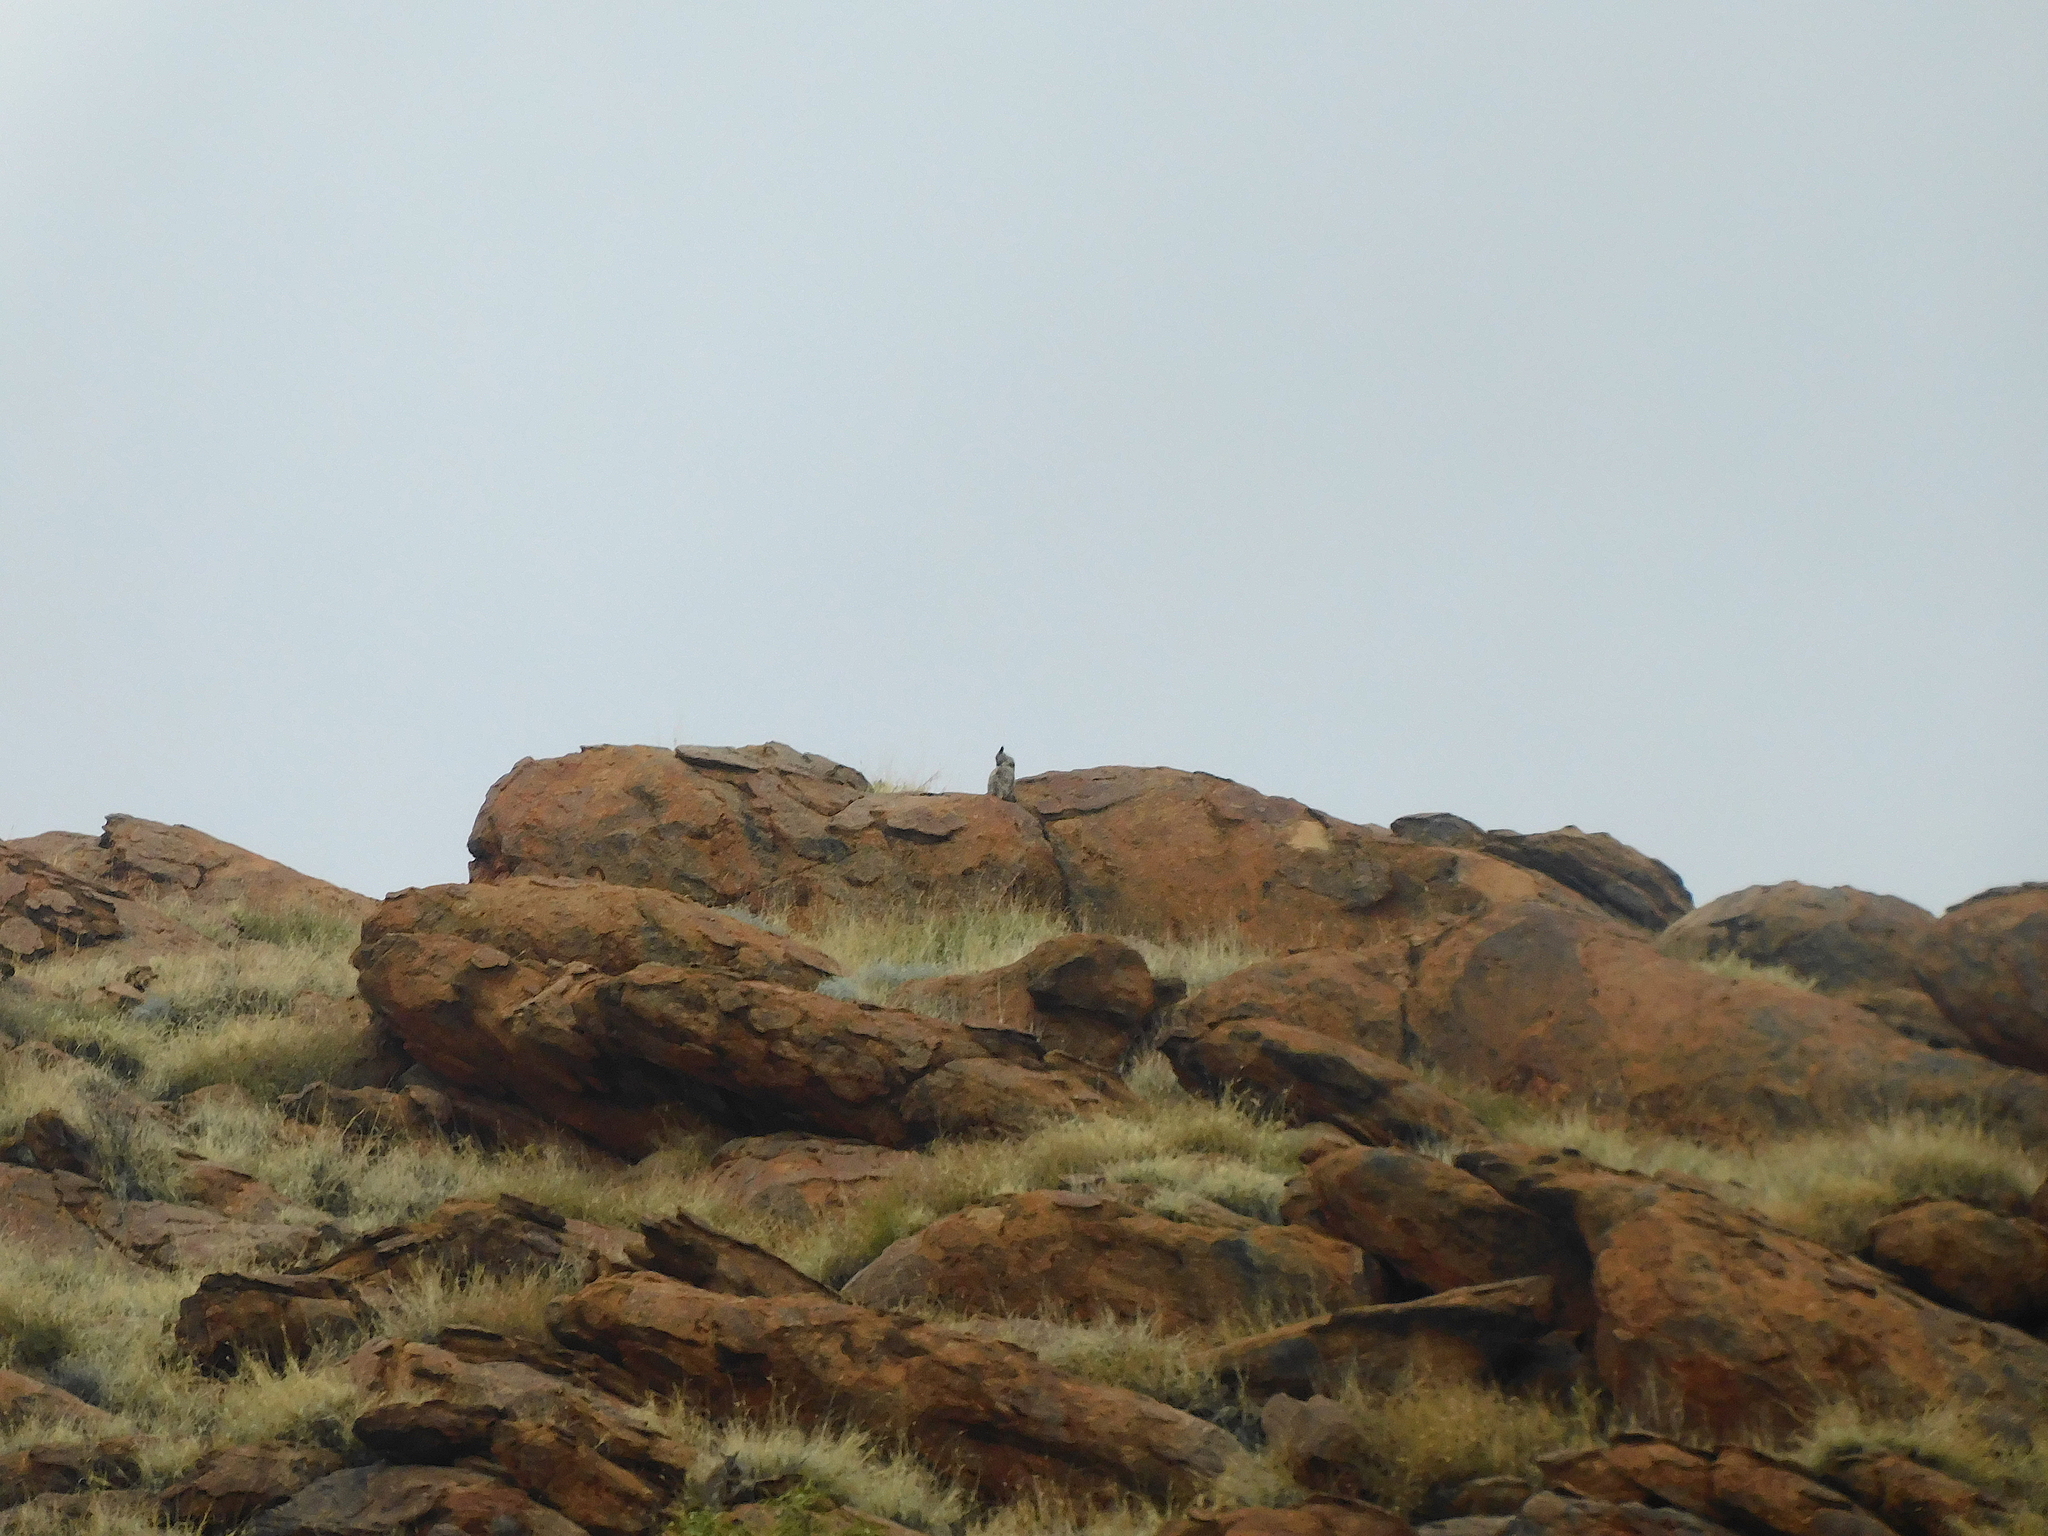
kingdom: Animalia
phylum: Chordata
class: Mammalia
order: Diprotodontia
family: Macropodidae
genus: Petrogale
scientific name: Petrogale lateralis
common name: Black-flanked rock-wallaby
